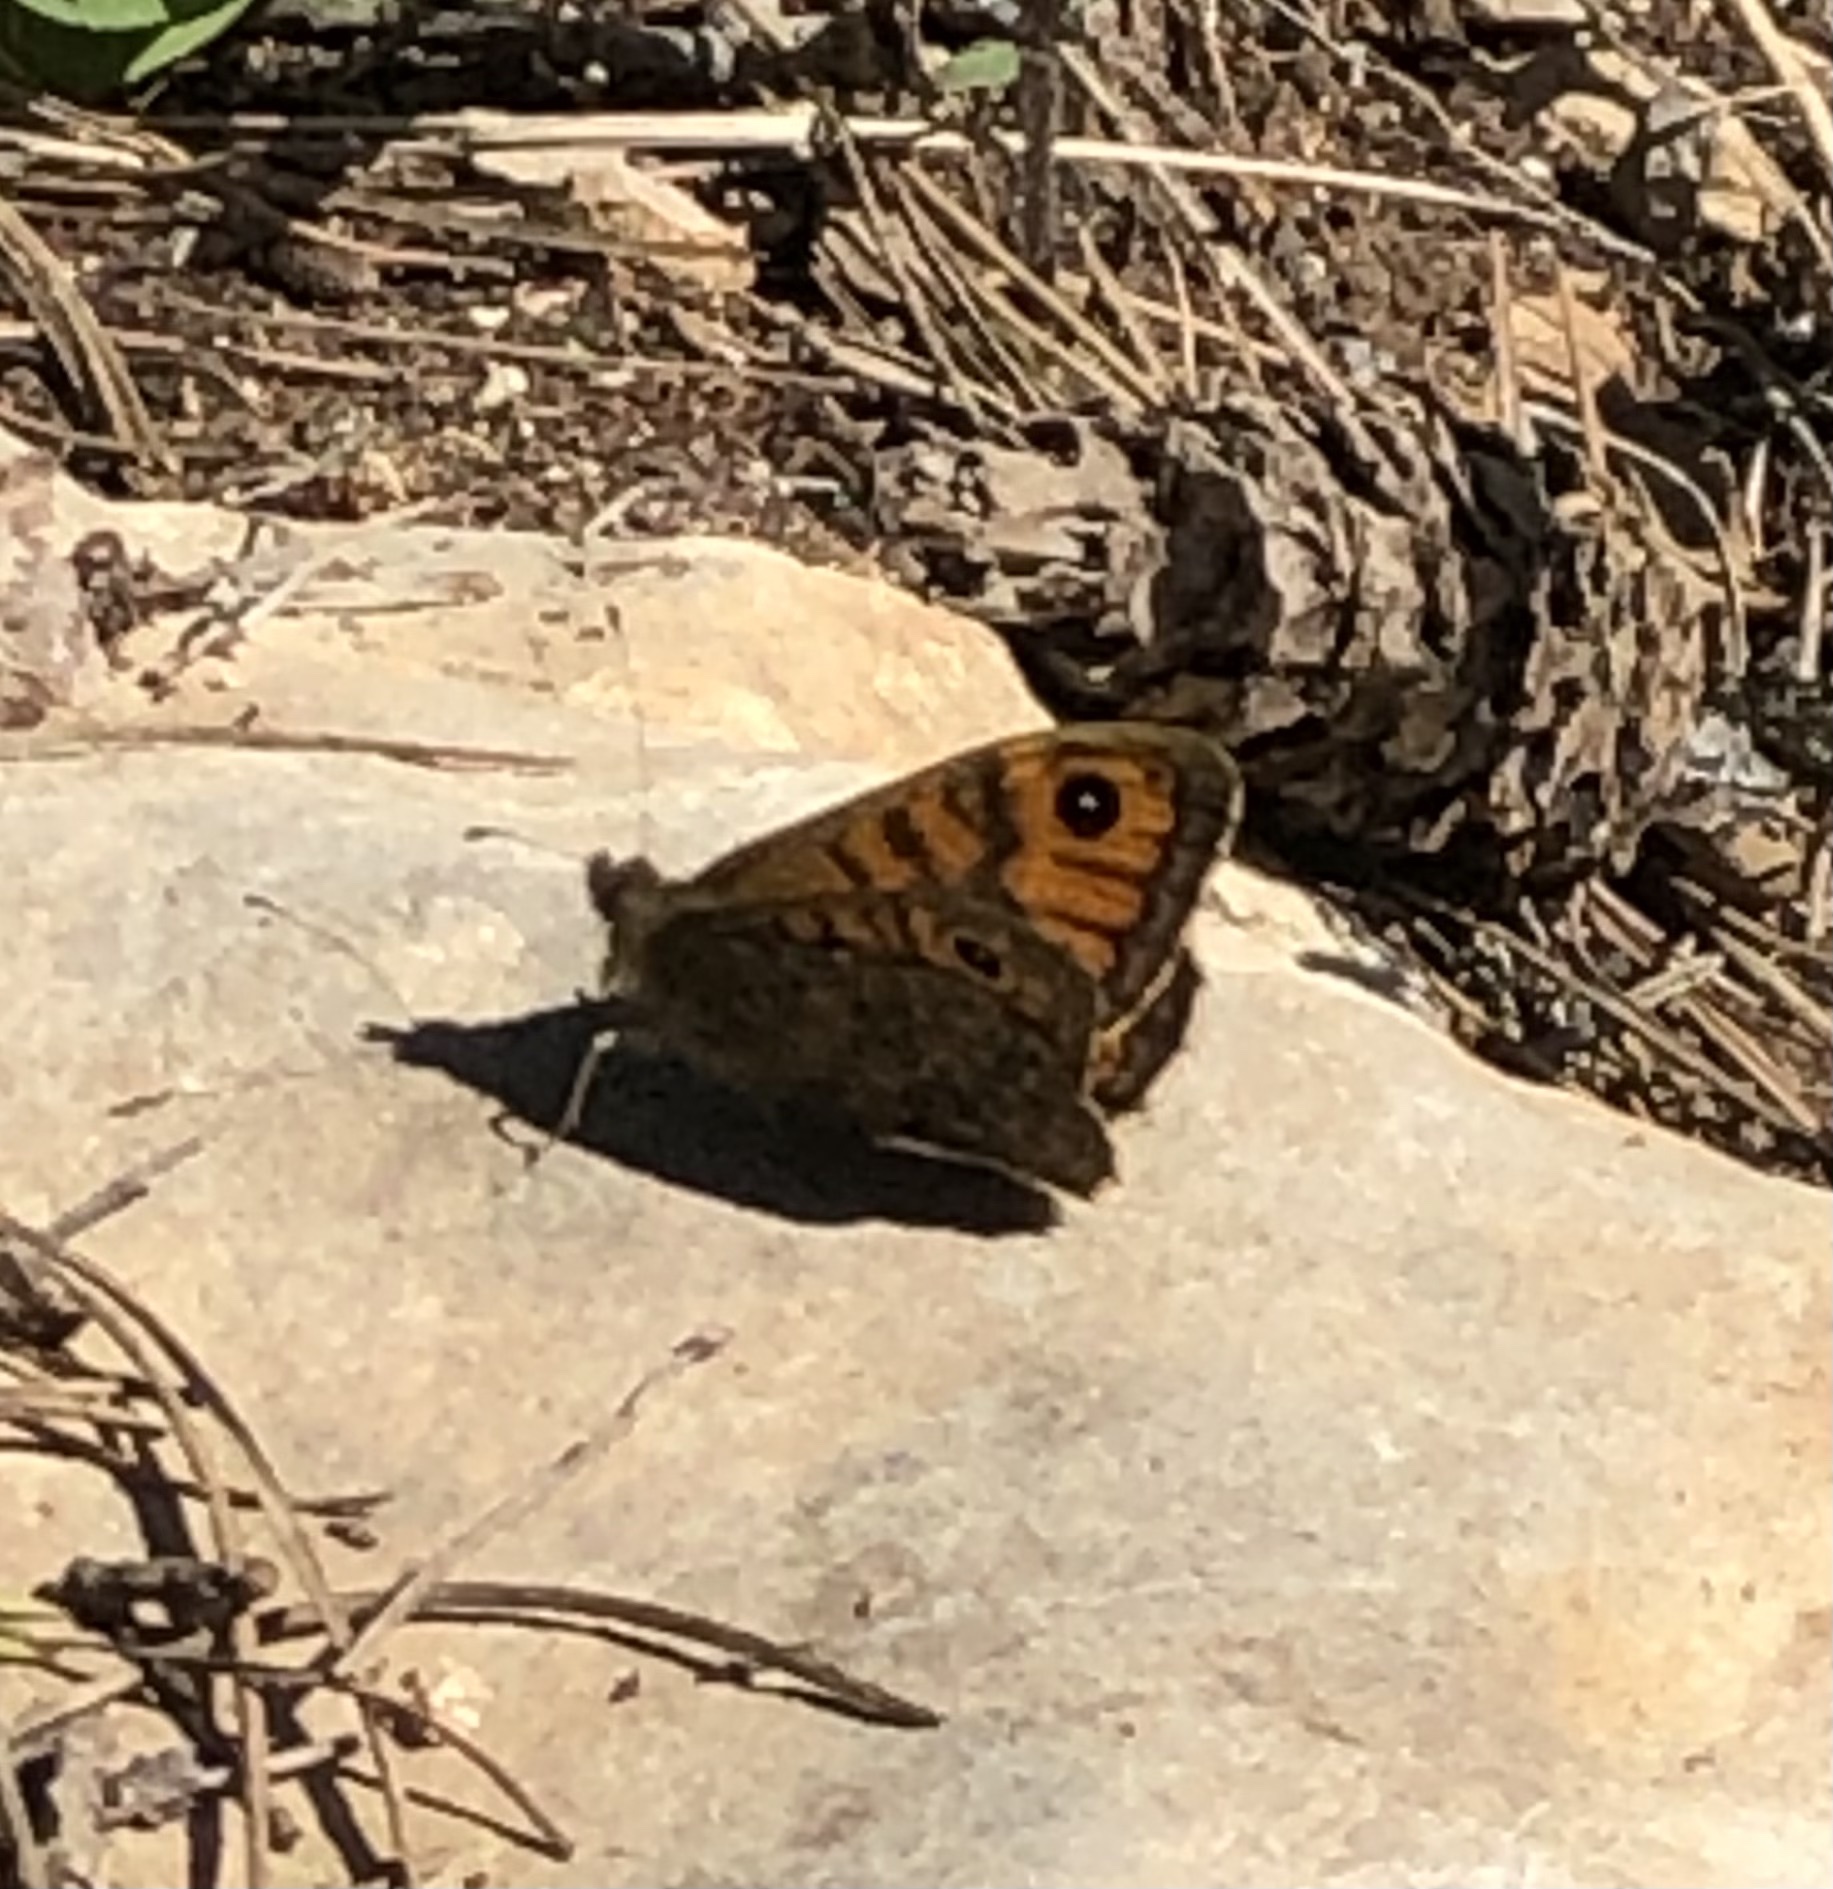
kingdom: Animalia
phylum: Arthropoda
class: Insecta
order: Lepidoptera
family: Nymphalidae
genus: Pararge
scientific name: Pararge Lasiommata megera
